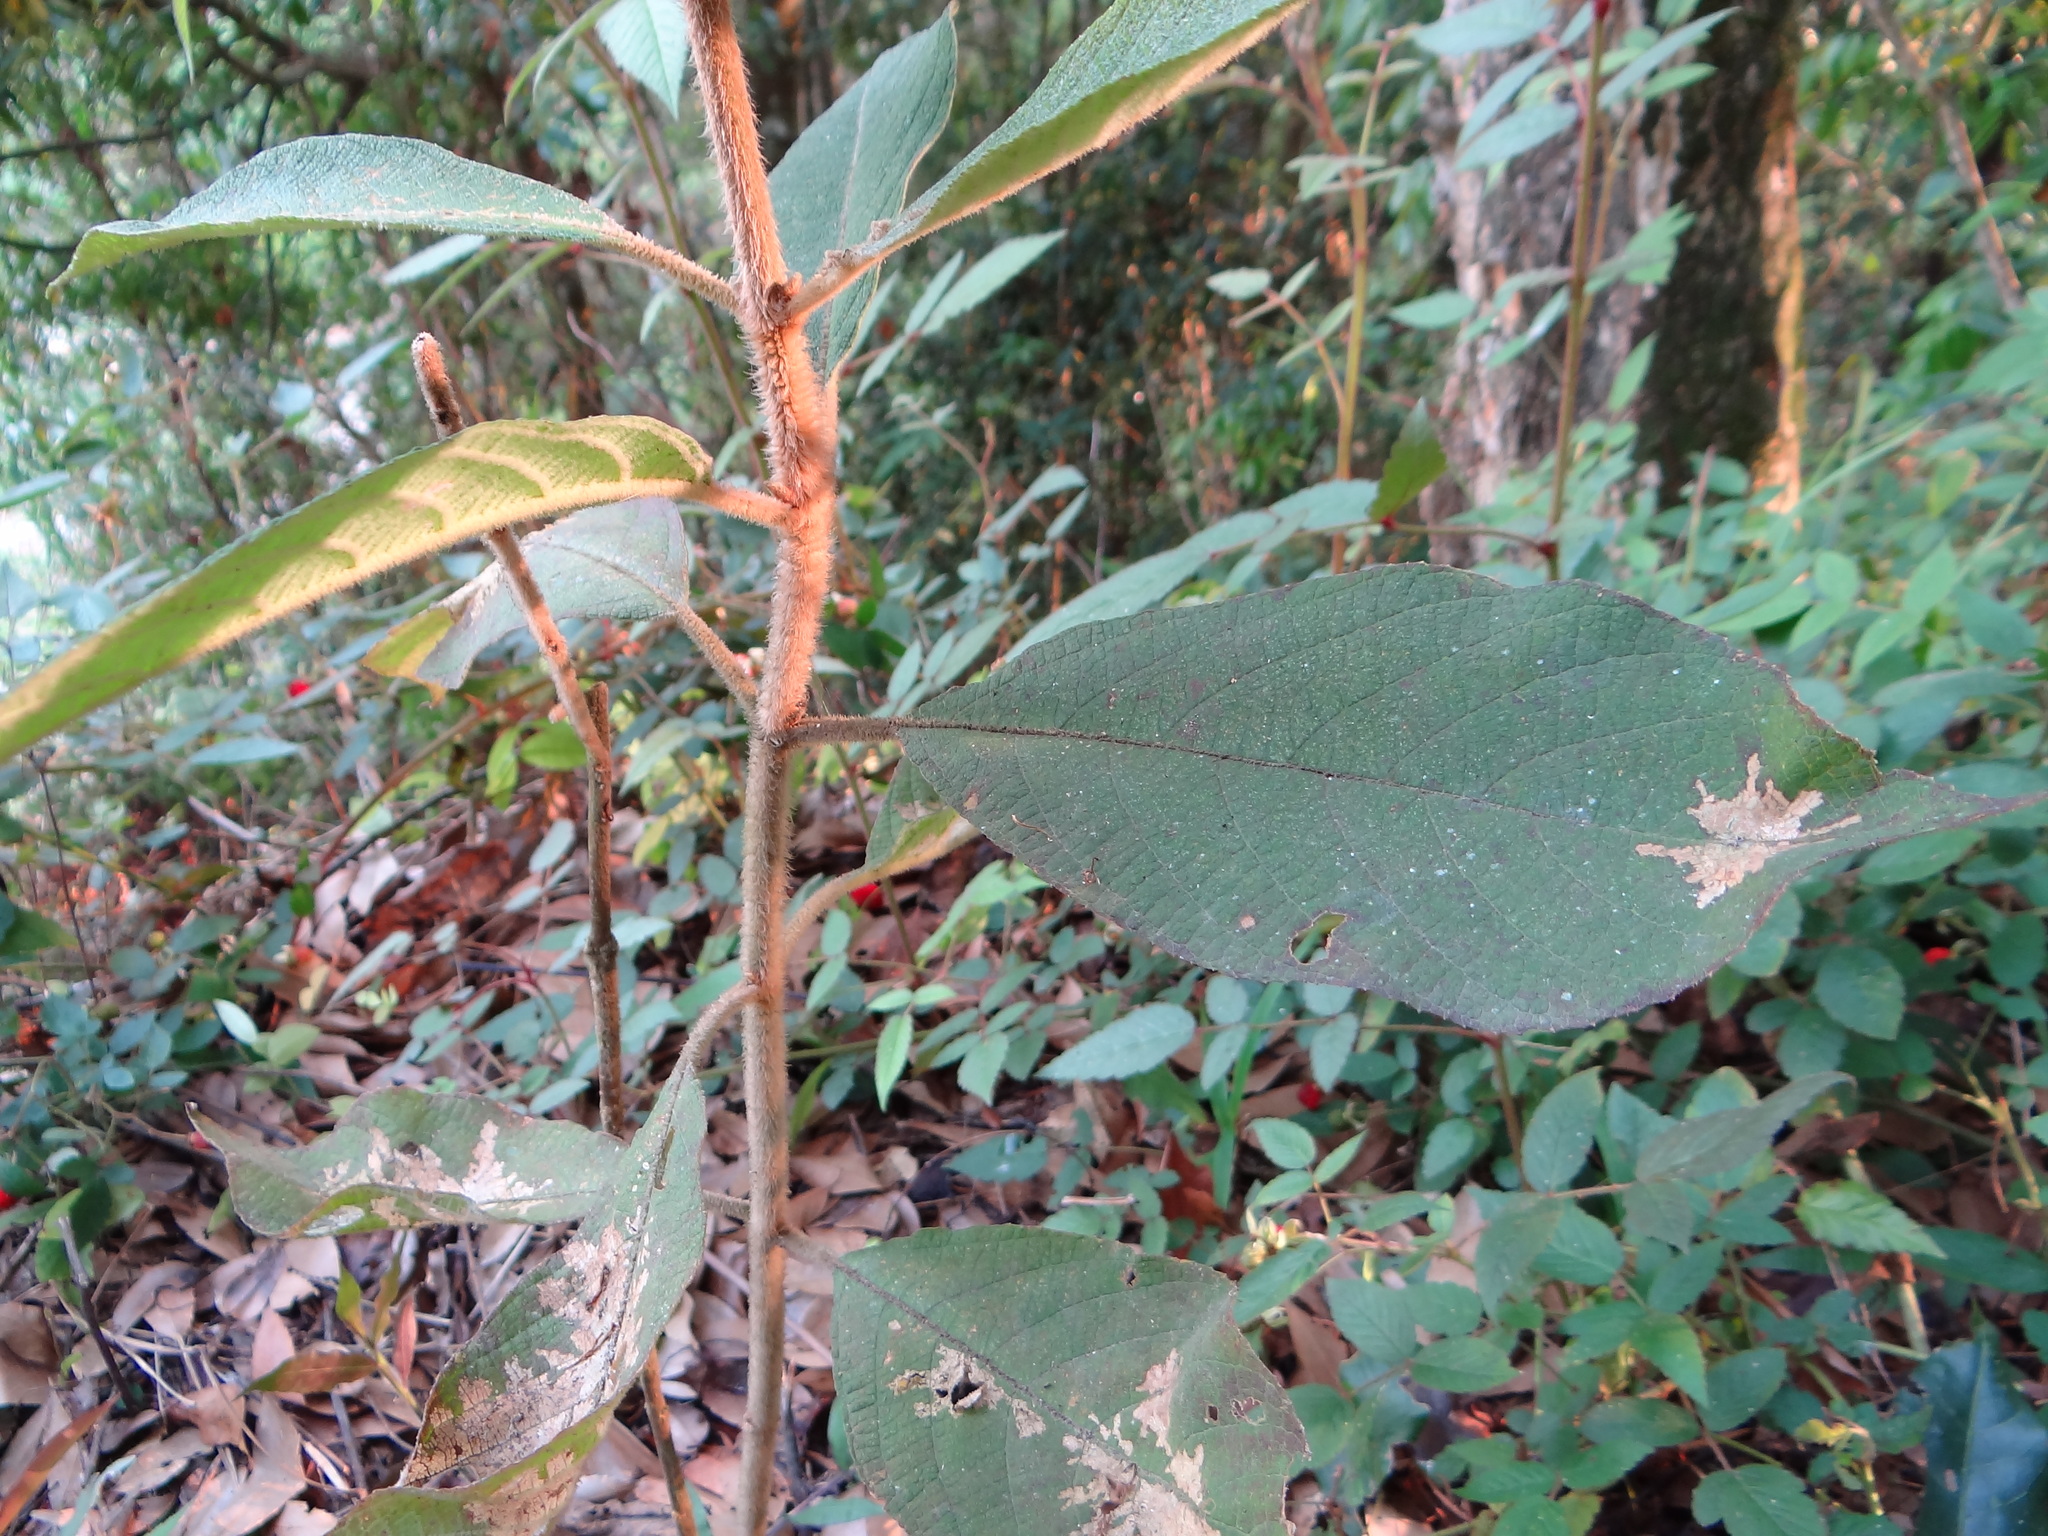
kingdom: Plantae
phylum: Tracheophyta
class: Magnoliopsida
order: Lamiales
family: Lamiaceae
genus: Callicarpa
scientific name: Callicarpa kochiana
